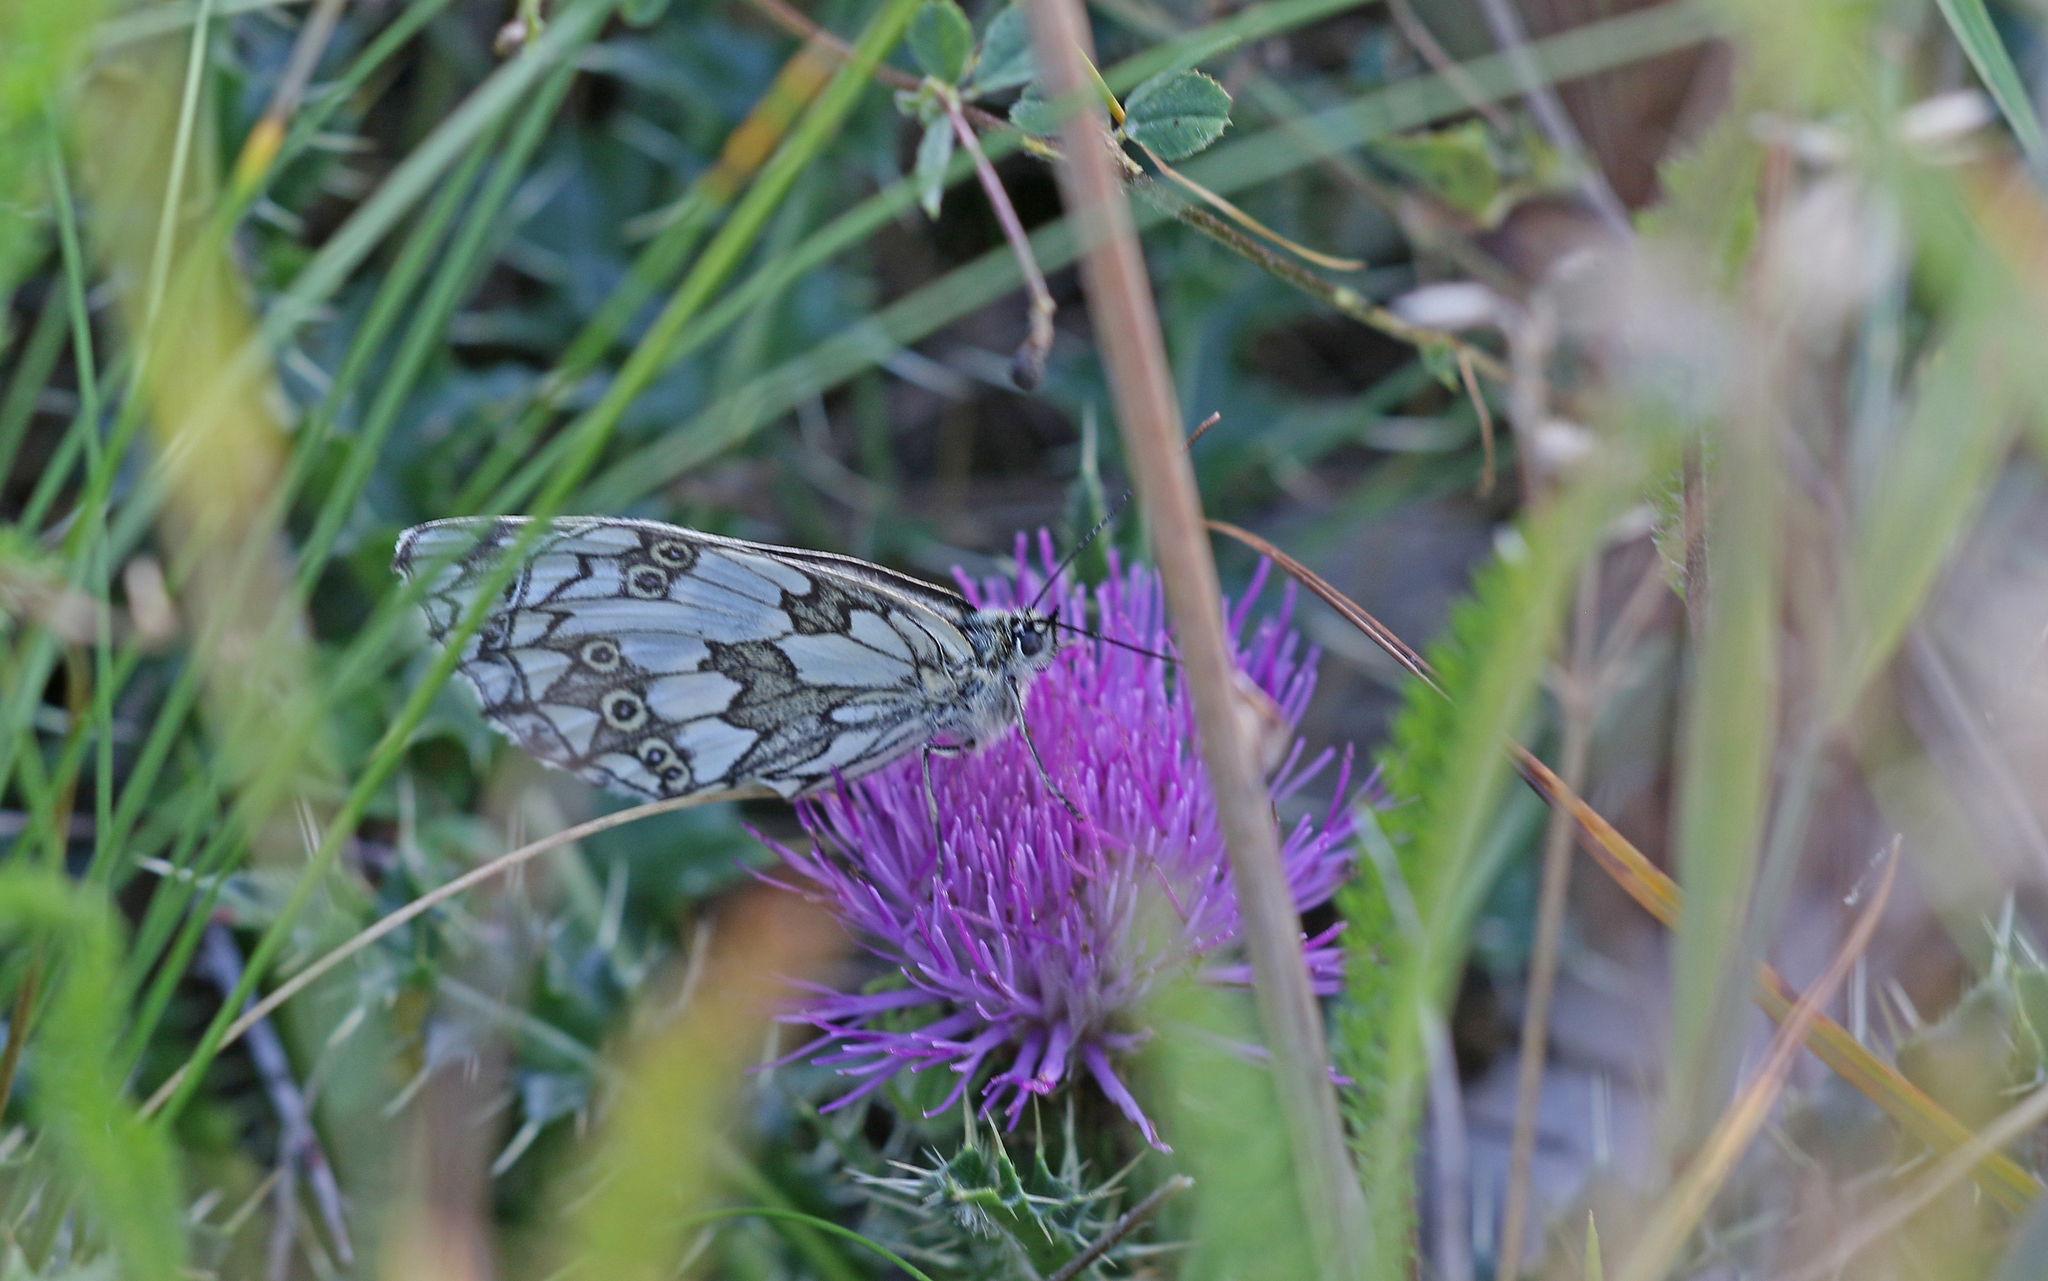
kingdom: Animalia
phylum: Arthropoda
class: Insecta
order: Lepidoptera
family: Nymphalidae
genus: Melanargia
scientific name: Melanargia galathea
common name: Marbled white
